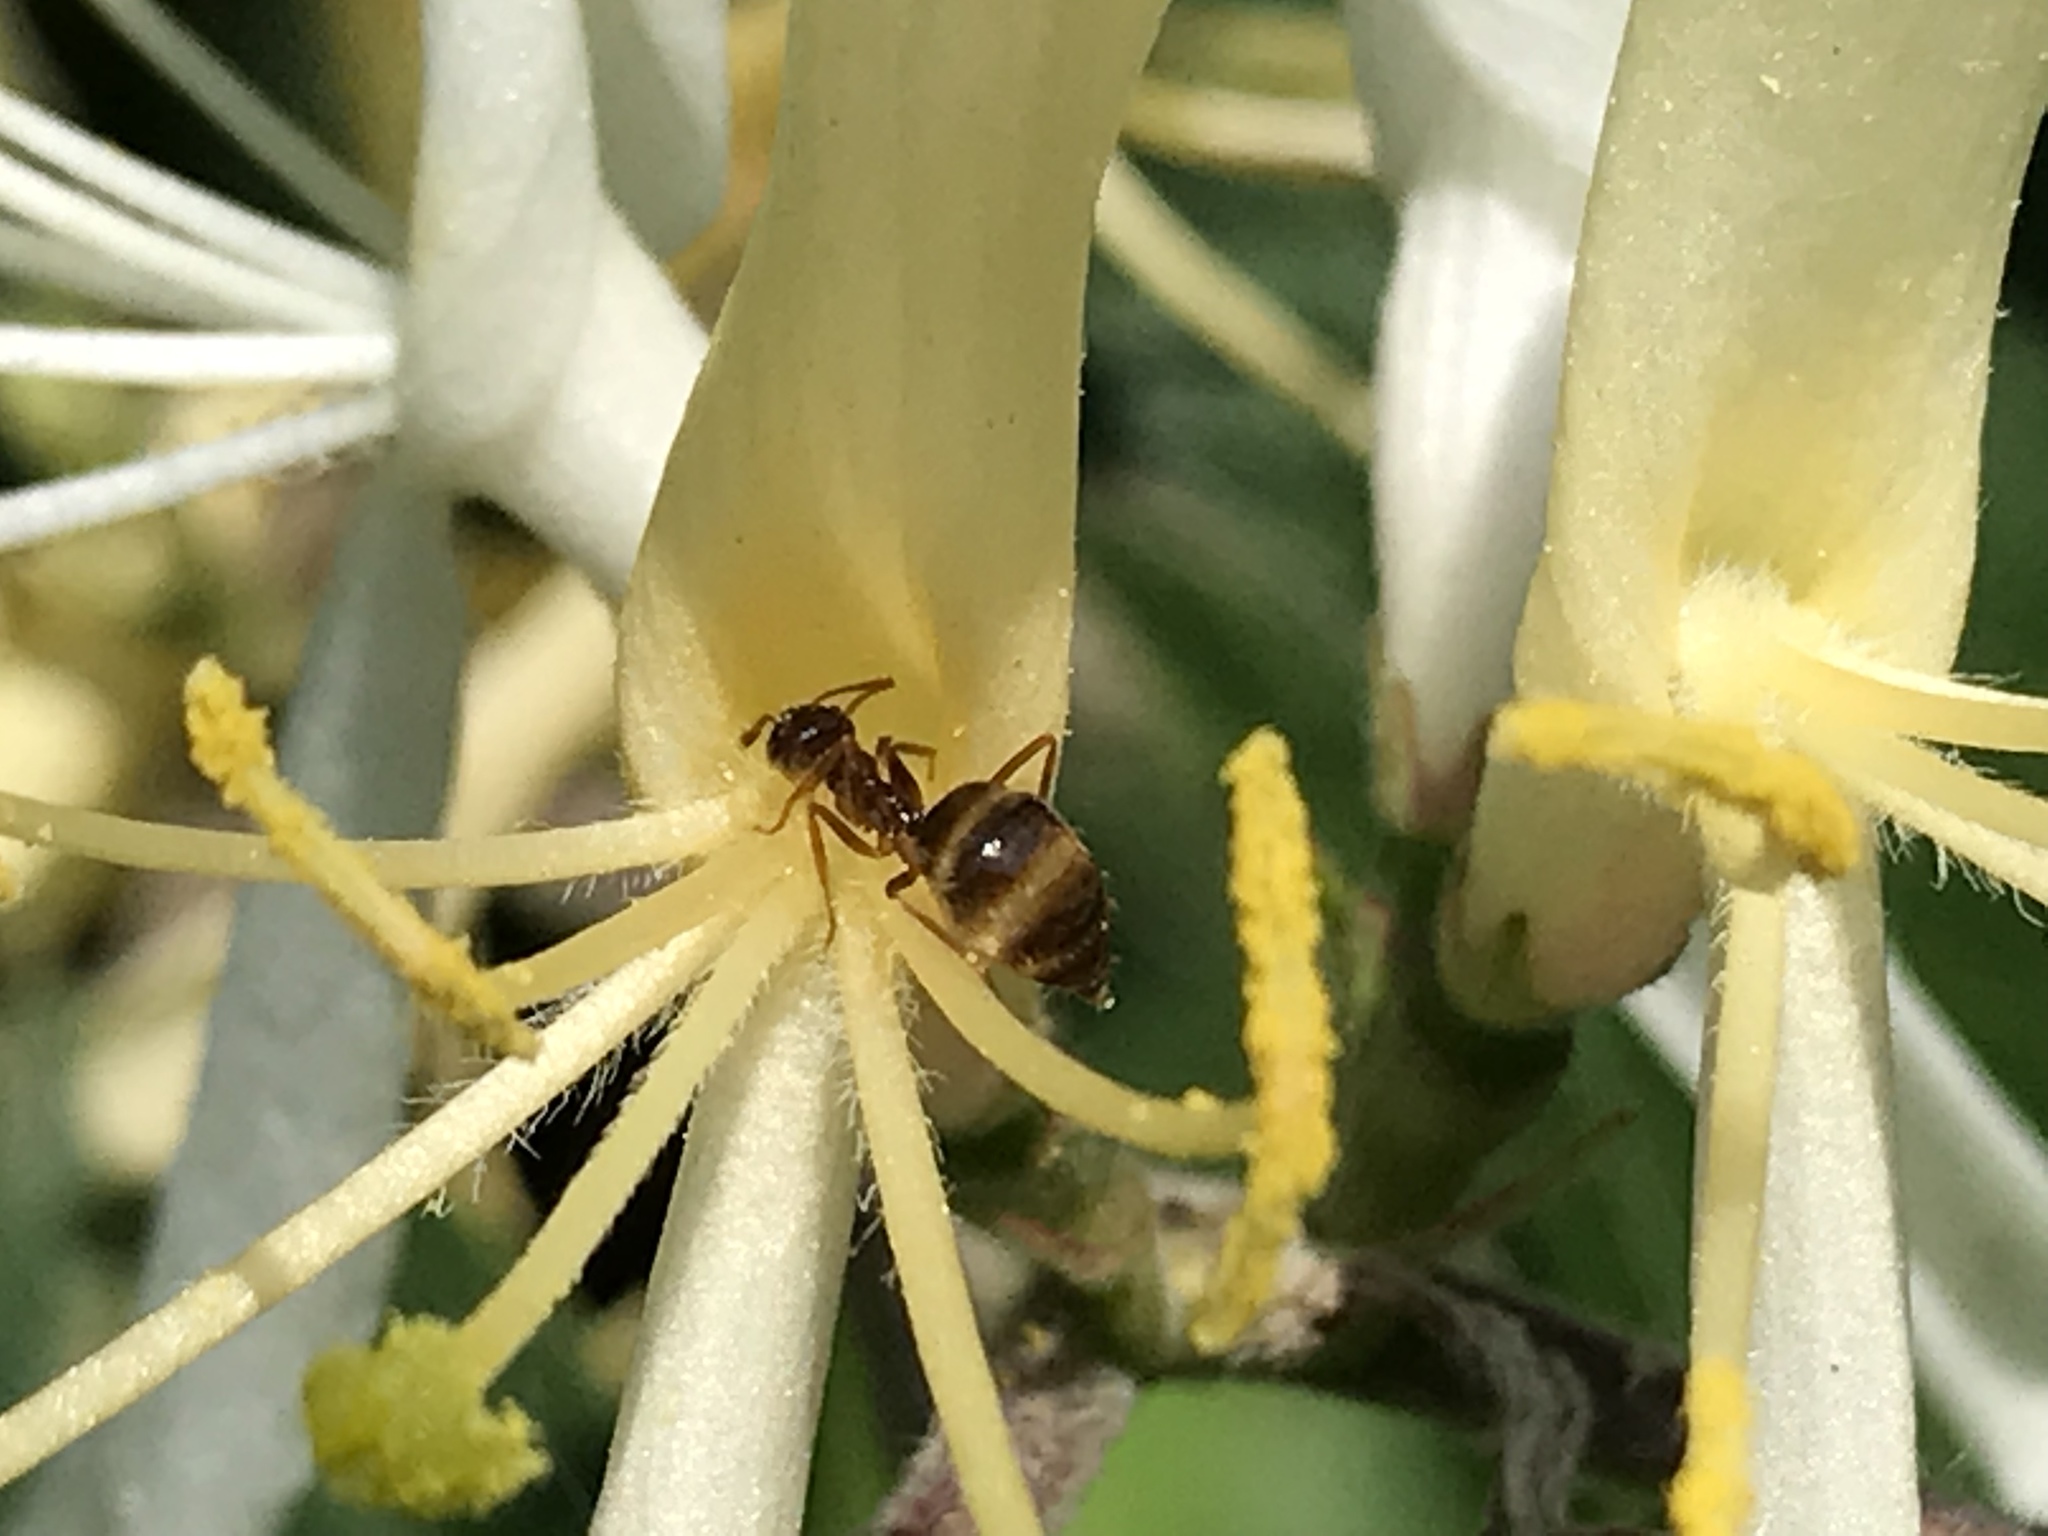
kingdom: Animalia
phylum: Arthropoda
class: Insecta
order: Hymenoptera
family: Formicidae
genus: Prenolepis
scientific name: Prenolepis imparis
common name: Small honey ant
